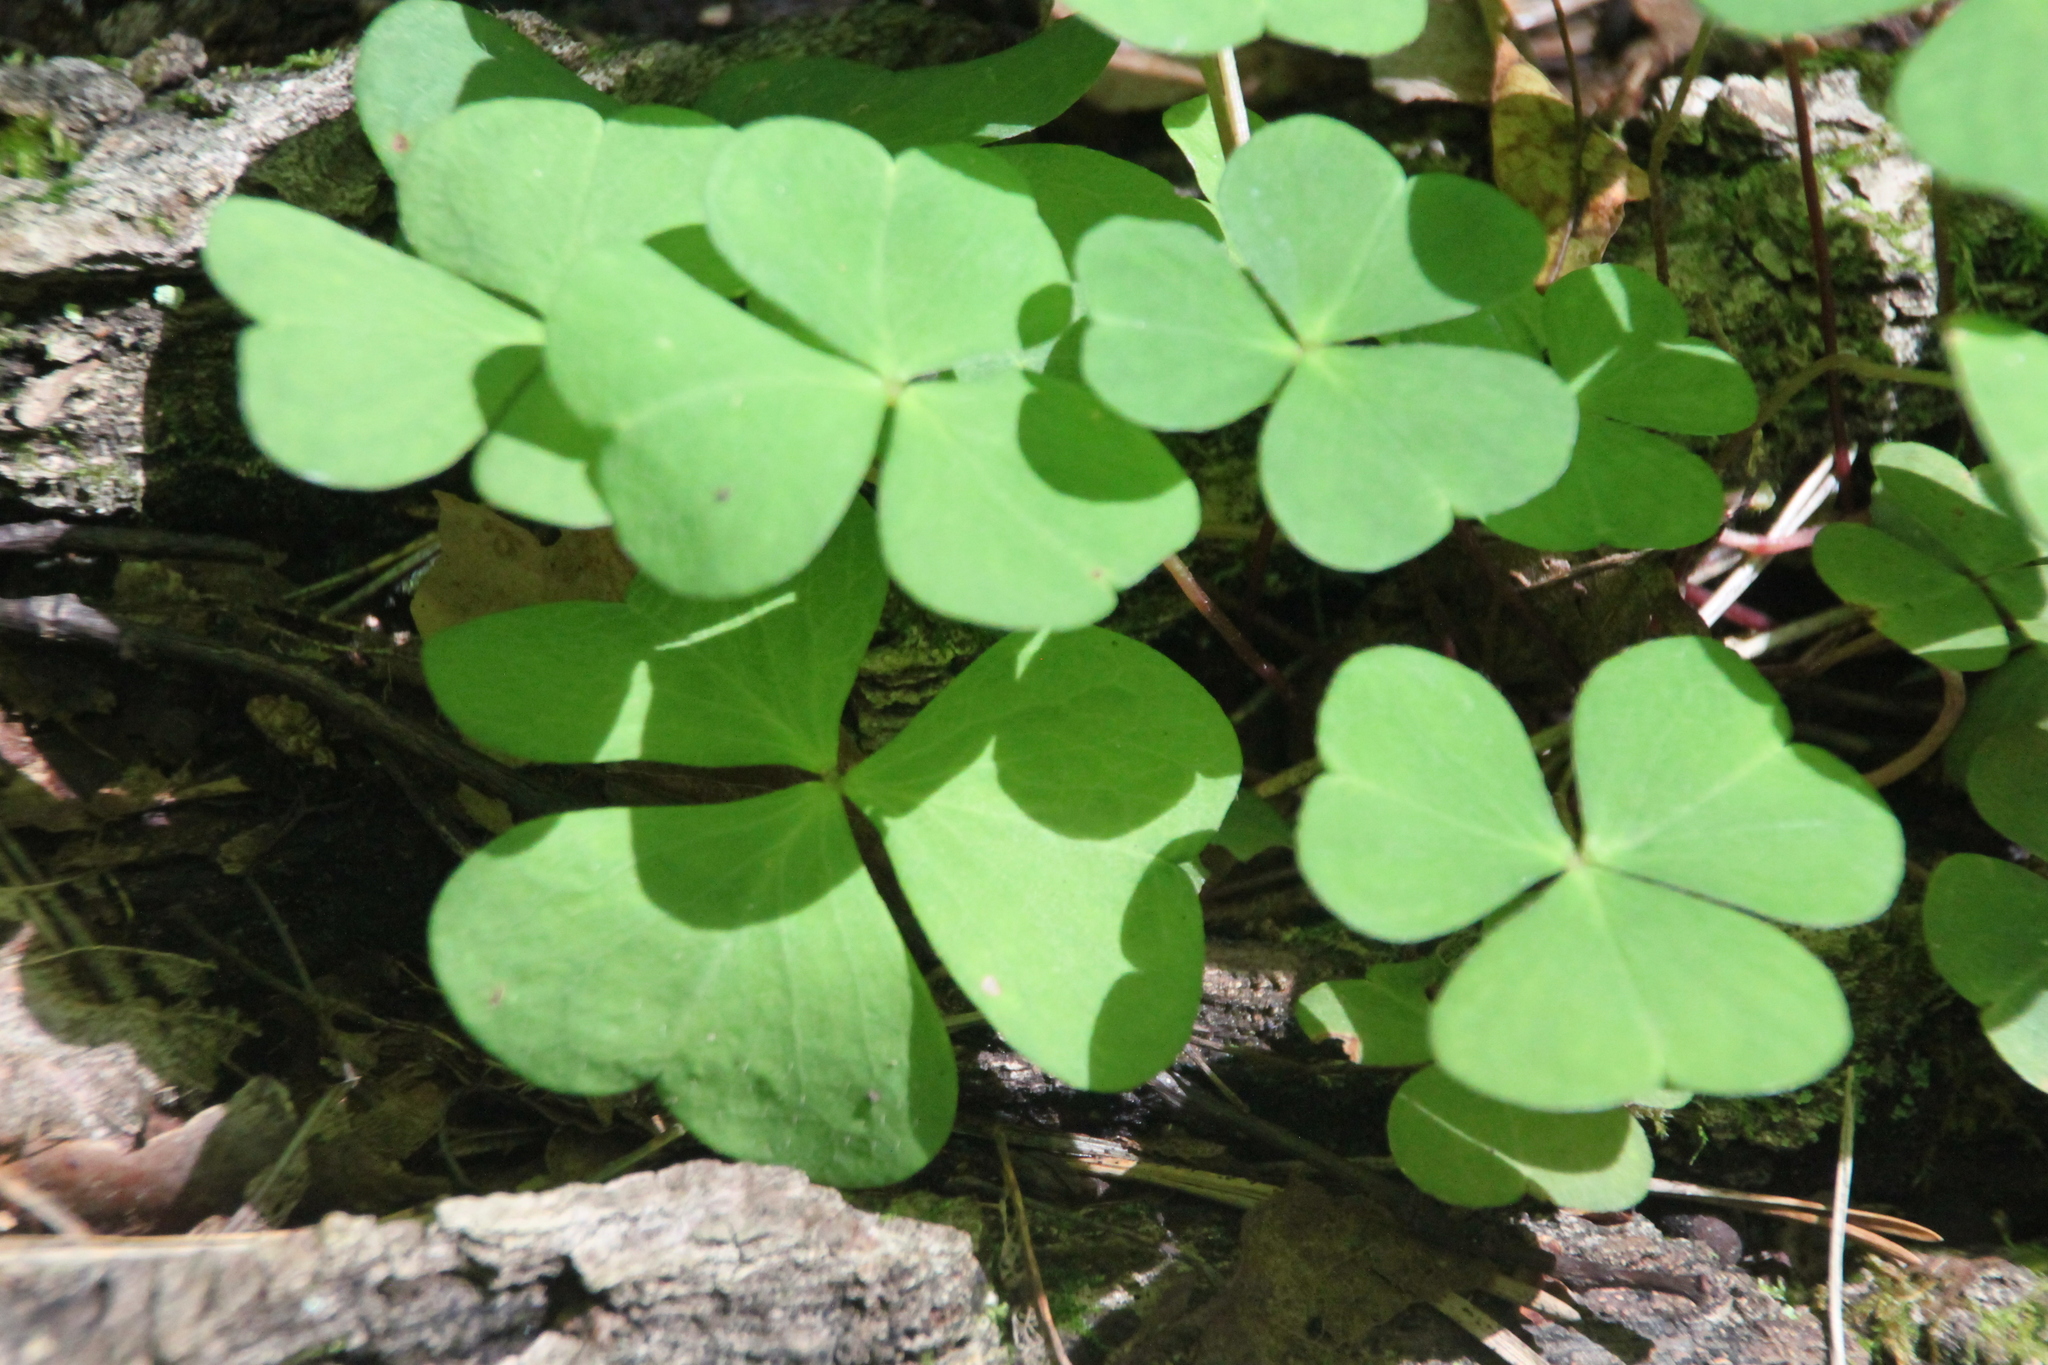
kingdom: Plantae
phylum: Tracheophyta
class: Magnoliopsida
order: Oxalidales
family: Oxalidaceae
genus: Oxalis
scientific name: Oxalis acetosella
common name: Wood-sorrel
